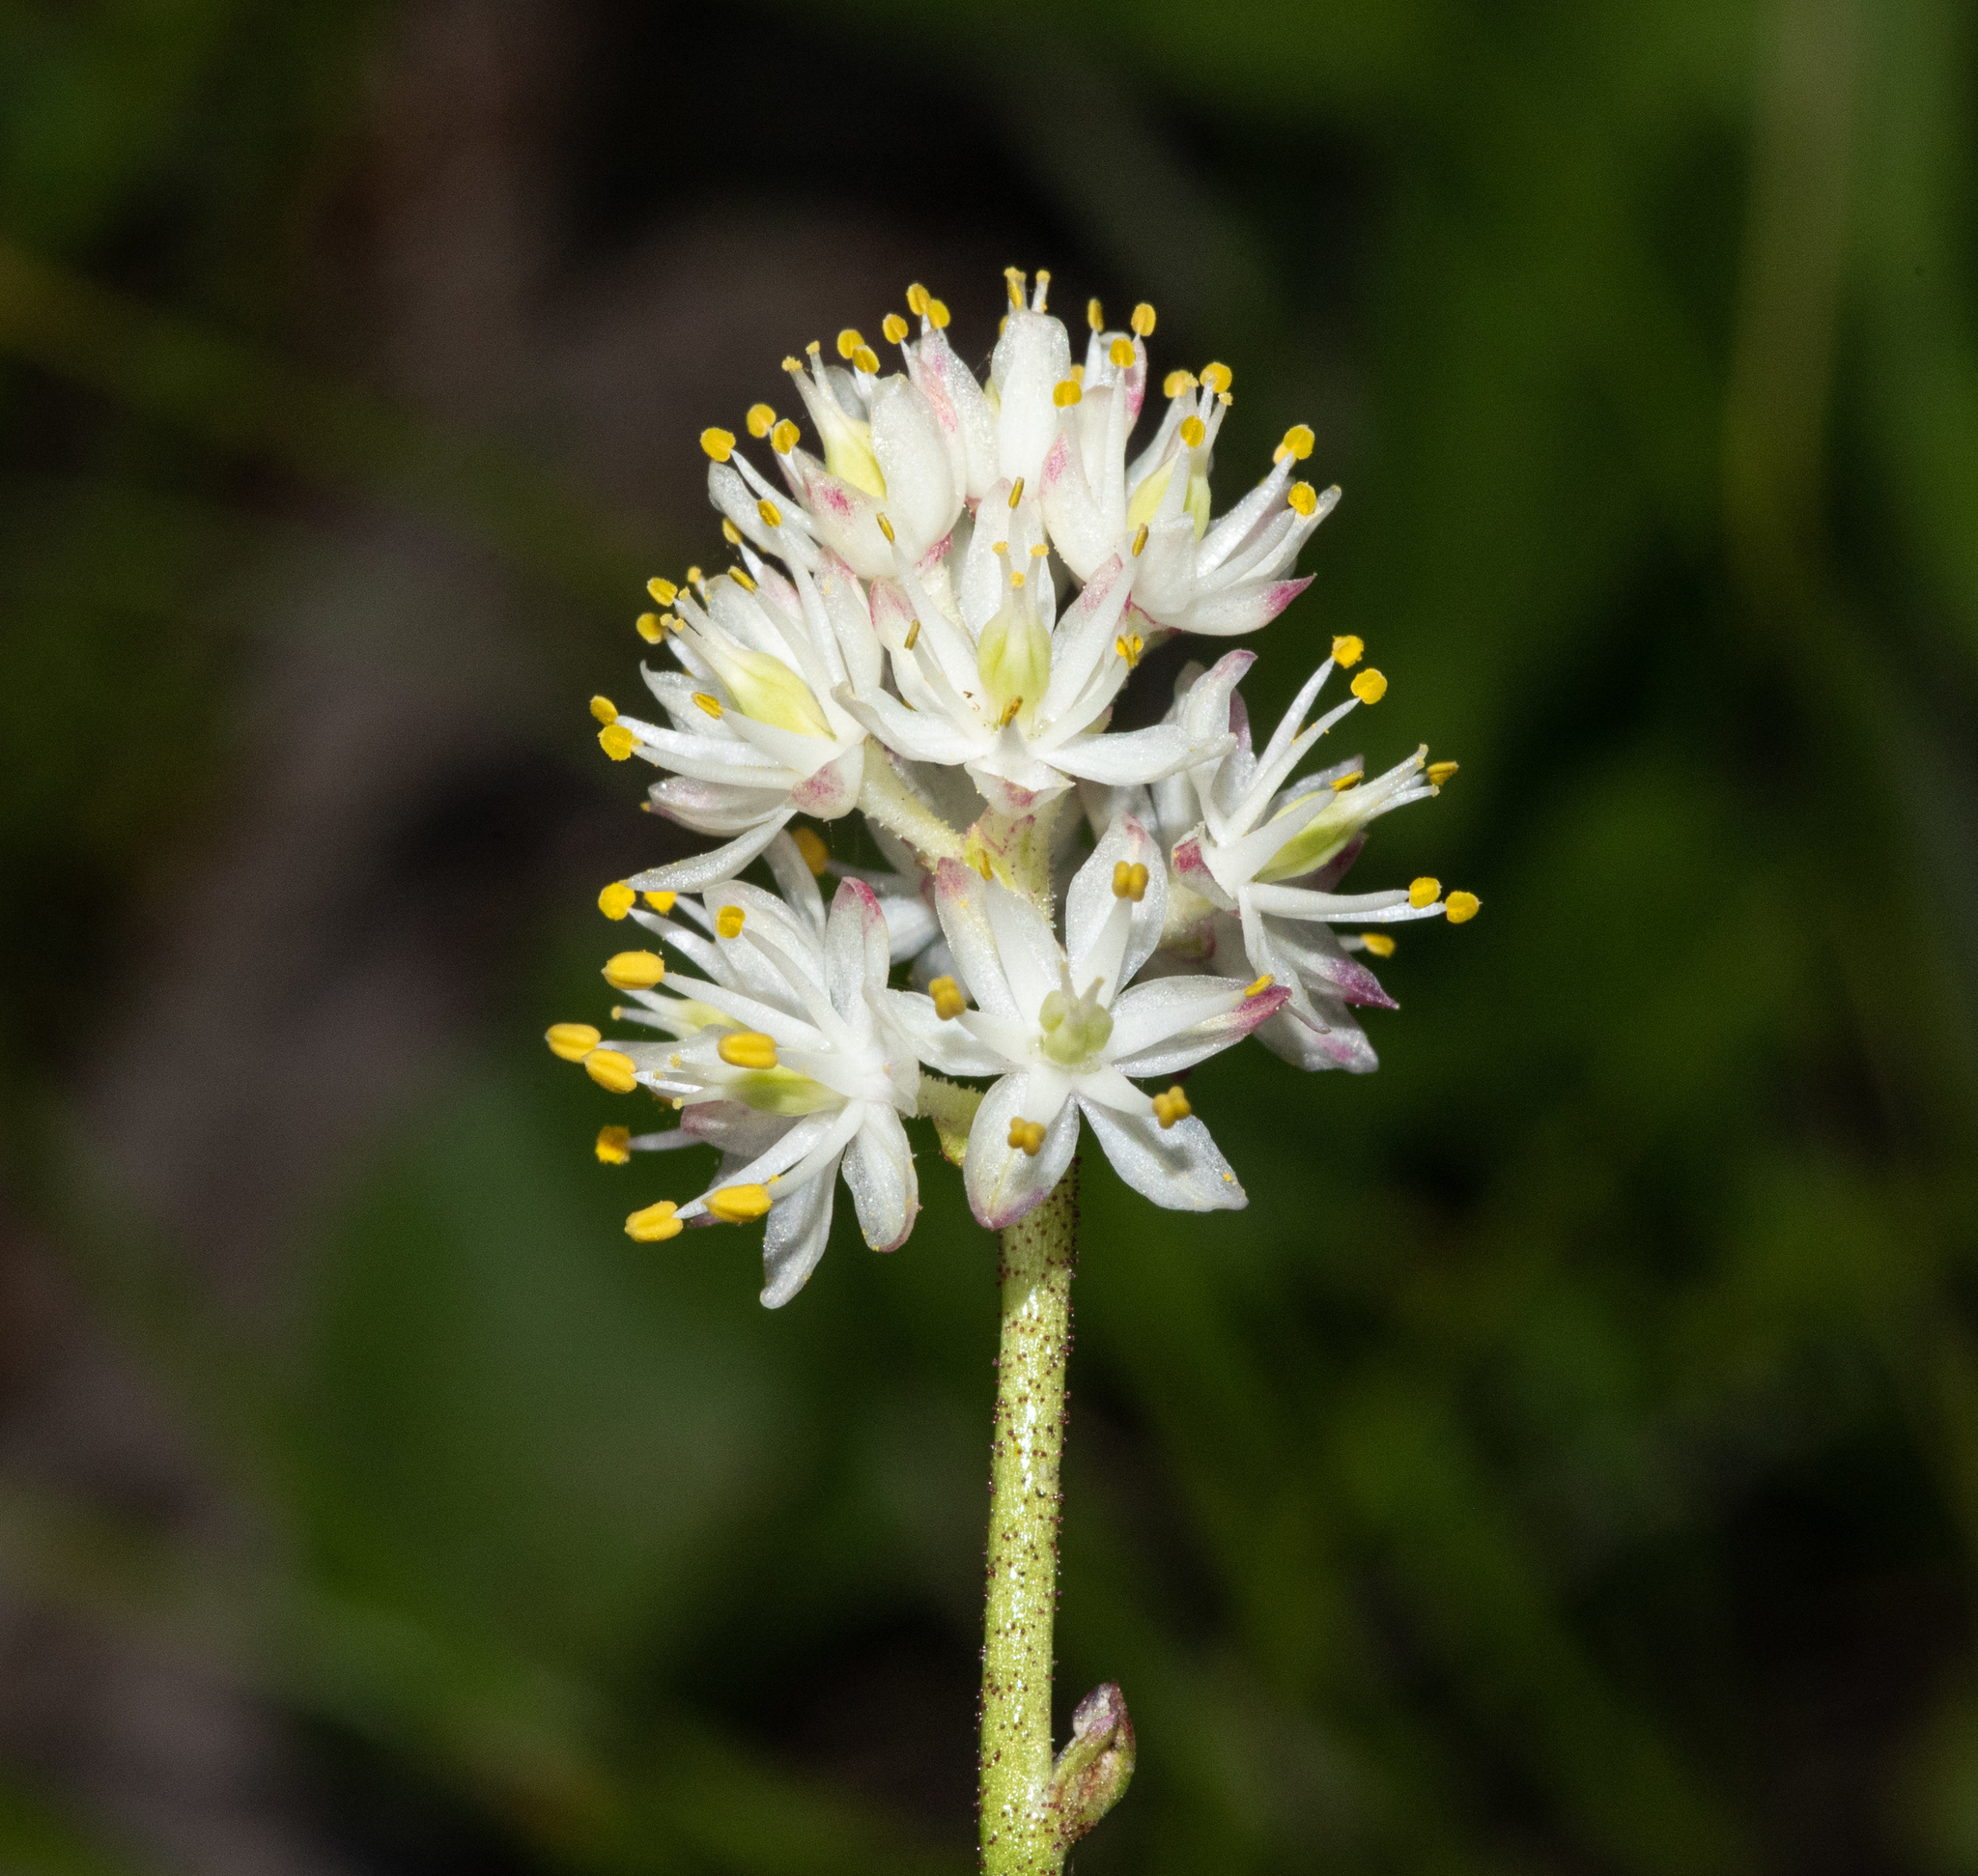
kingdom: Plantae
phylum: Tracheophyta
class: Liliopsida
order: Alismatales
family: Tofieldiaceae
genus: Triantha
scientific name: Triantha occidentalis
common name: Western false asphodel
